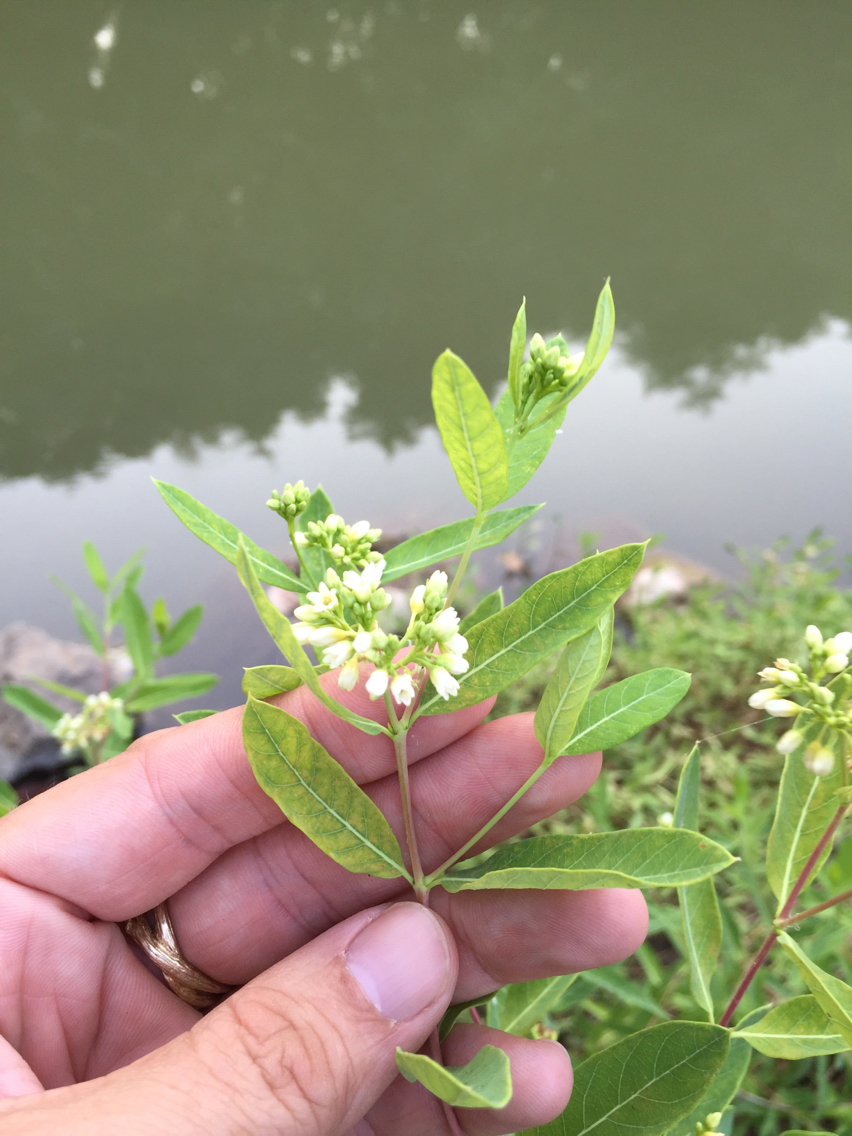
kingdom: Plantae
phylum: Tracheophyta
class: Magnoliopsida
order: Gentianales
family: Apocynaceae
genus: Apocynum
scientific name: Apocynum cannabinum
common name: Hemp dogbane
